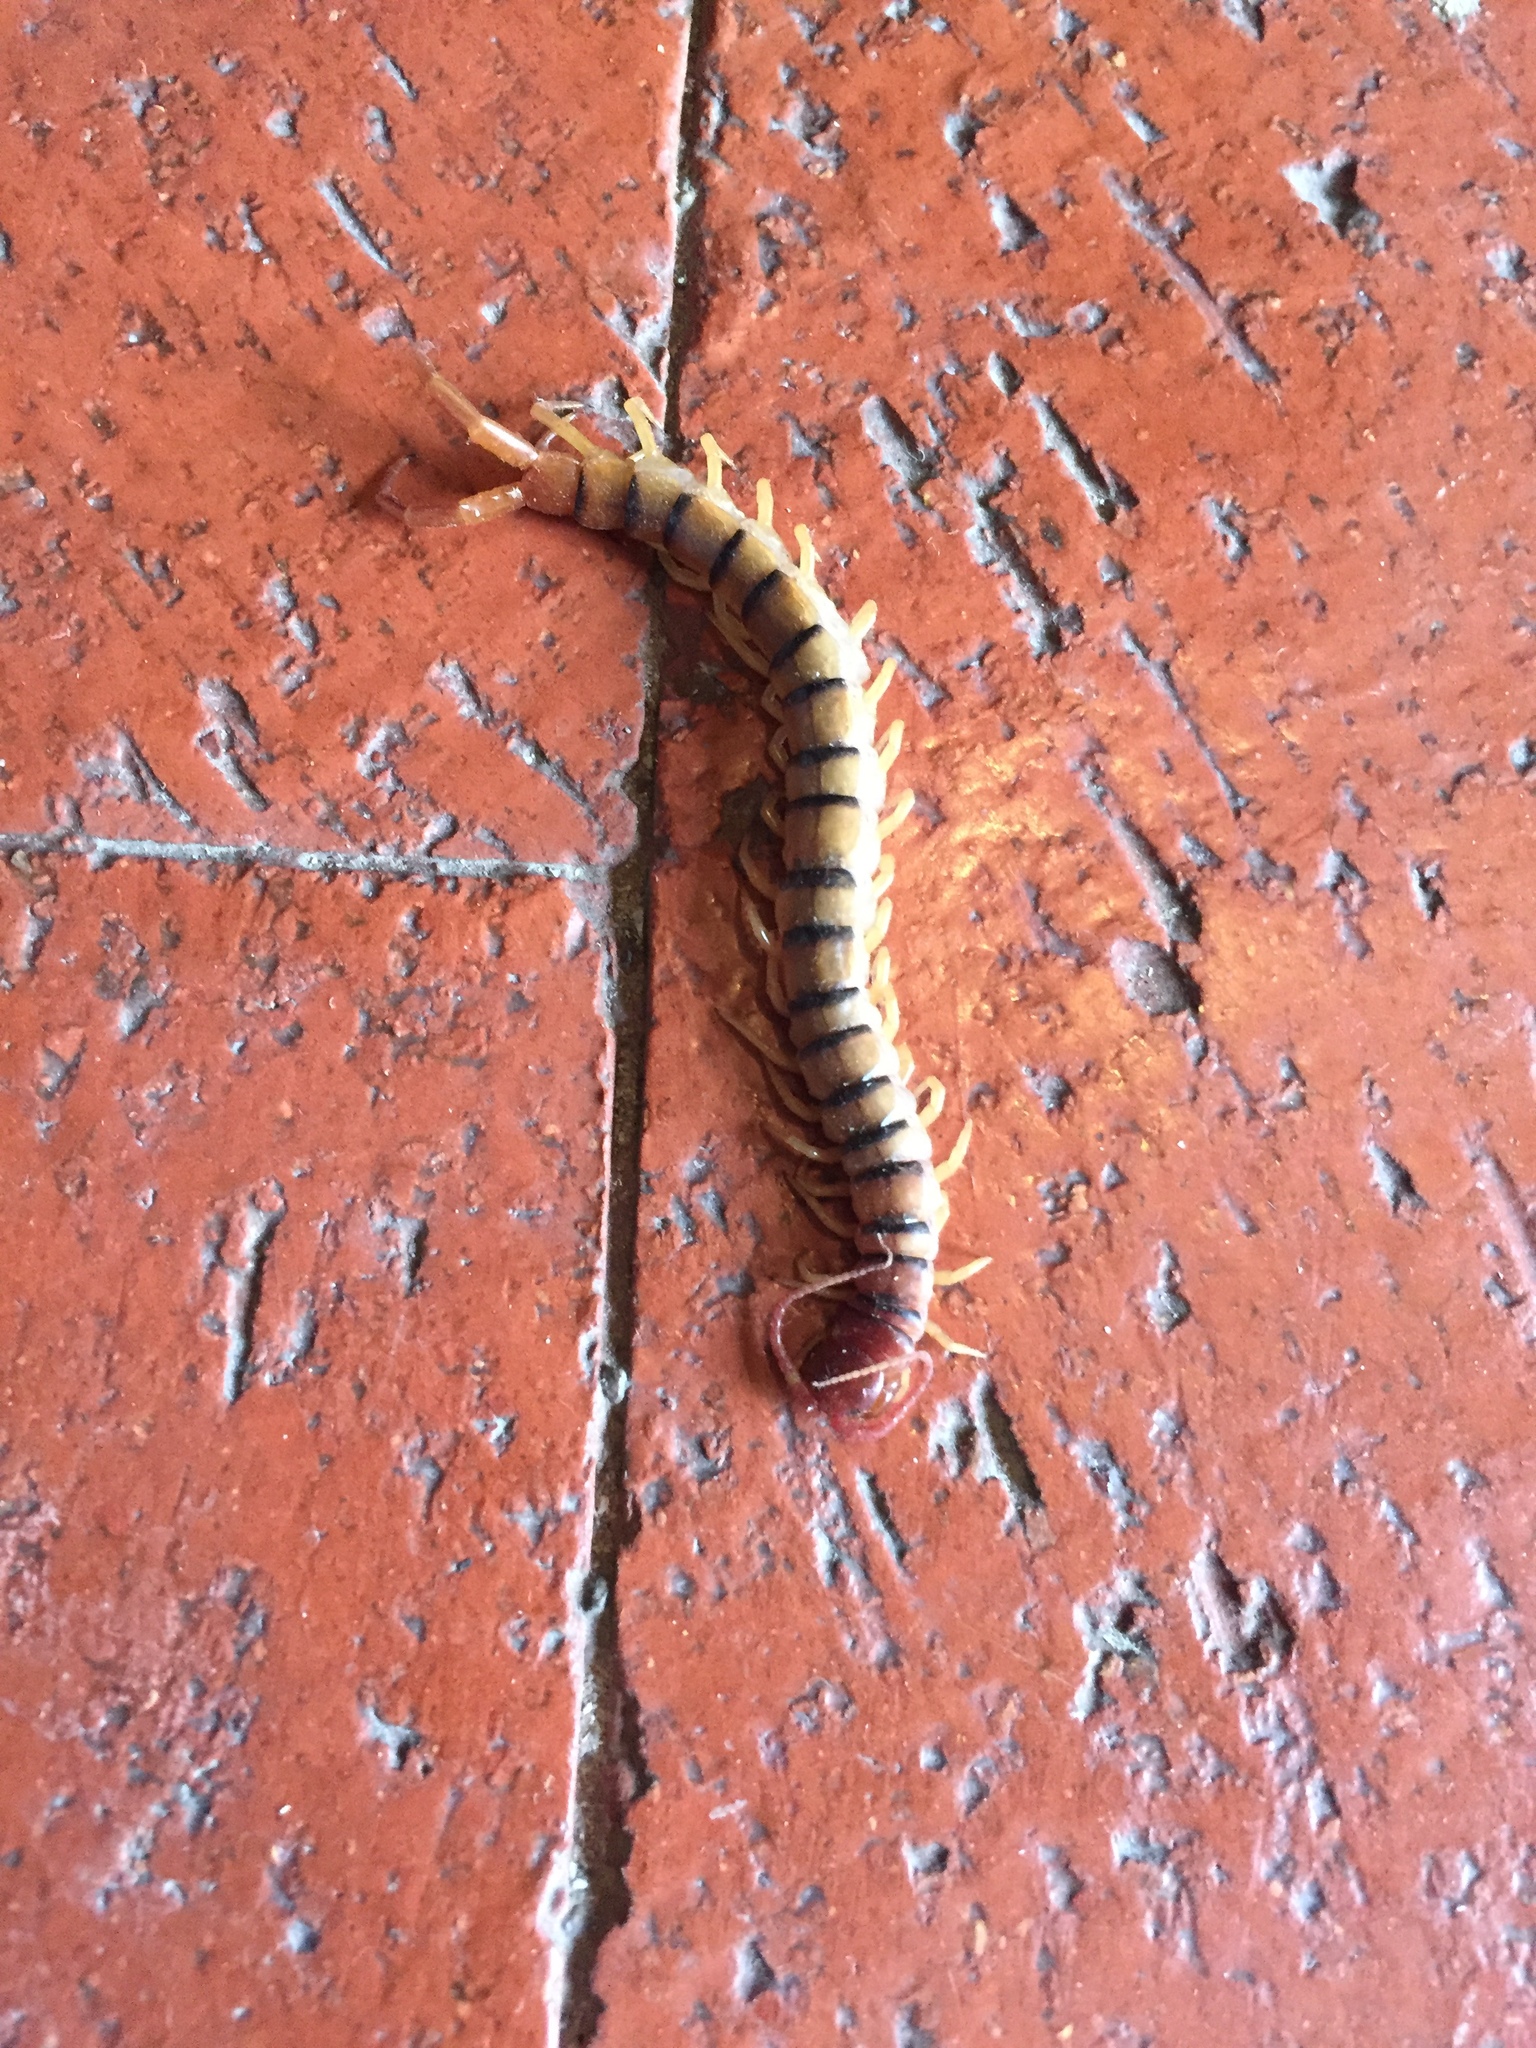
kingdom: Animalia
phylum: Arthropoda
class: Chilopoda
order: Scolopendromorpha
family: Scolopendridae
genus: Scolopendra
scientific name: Scolopendra polymorpha
